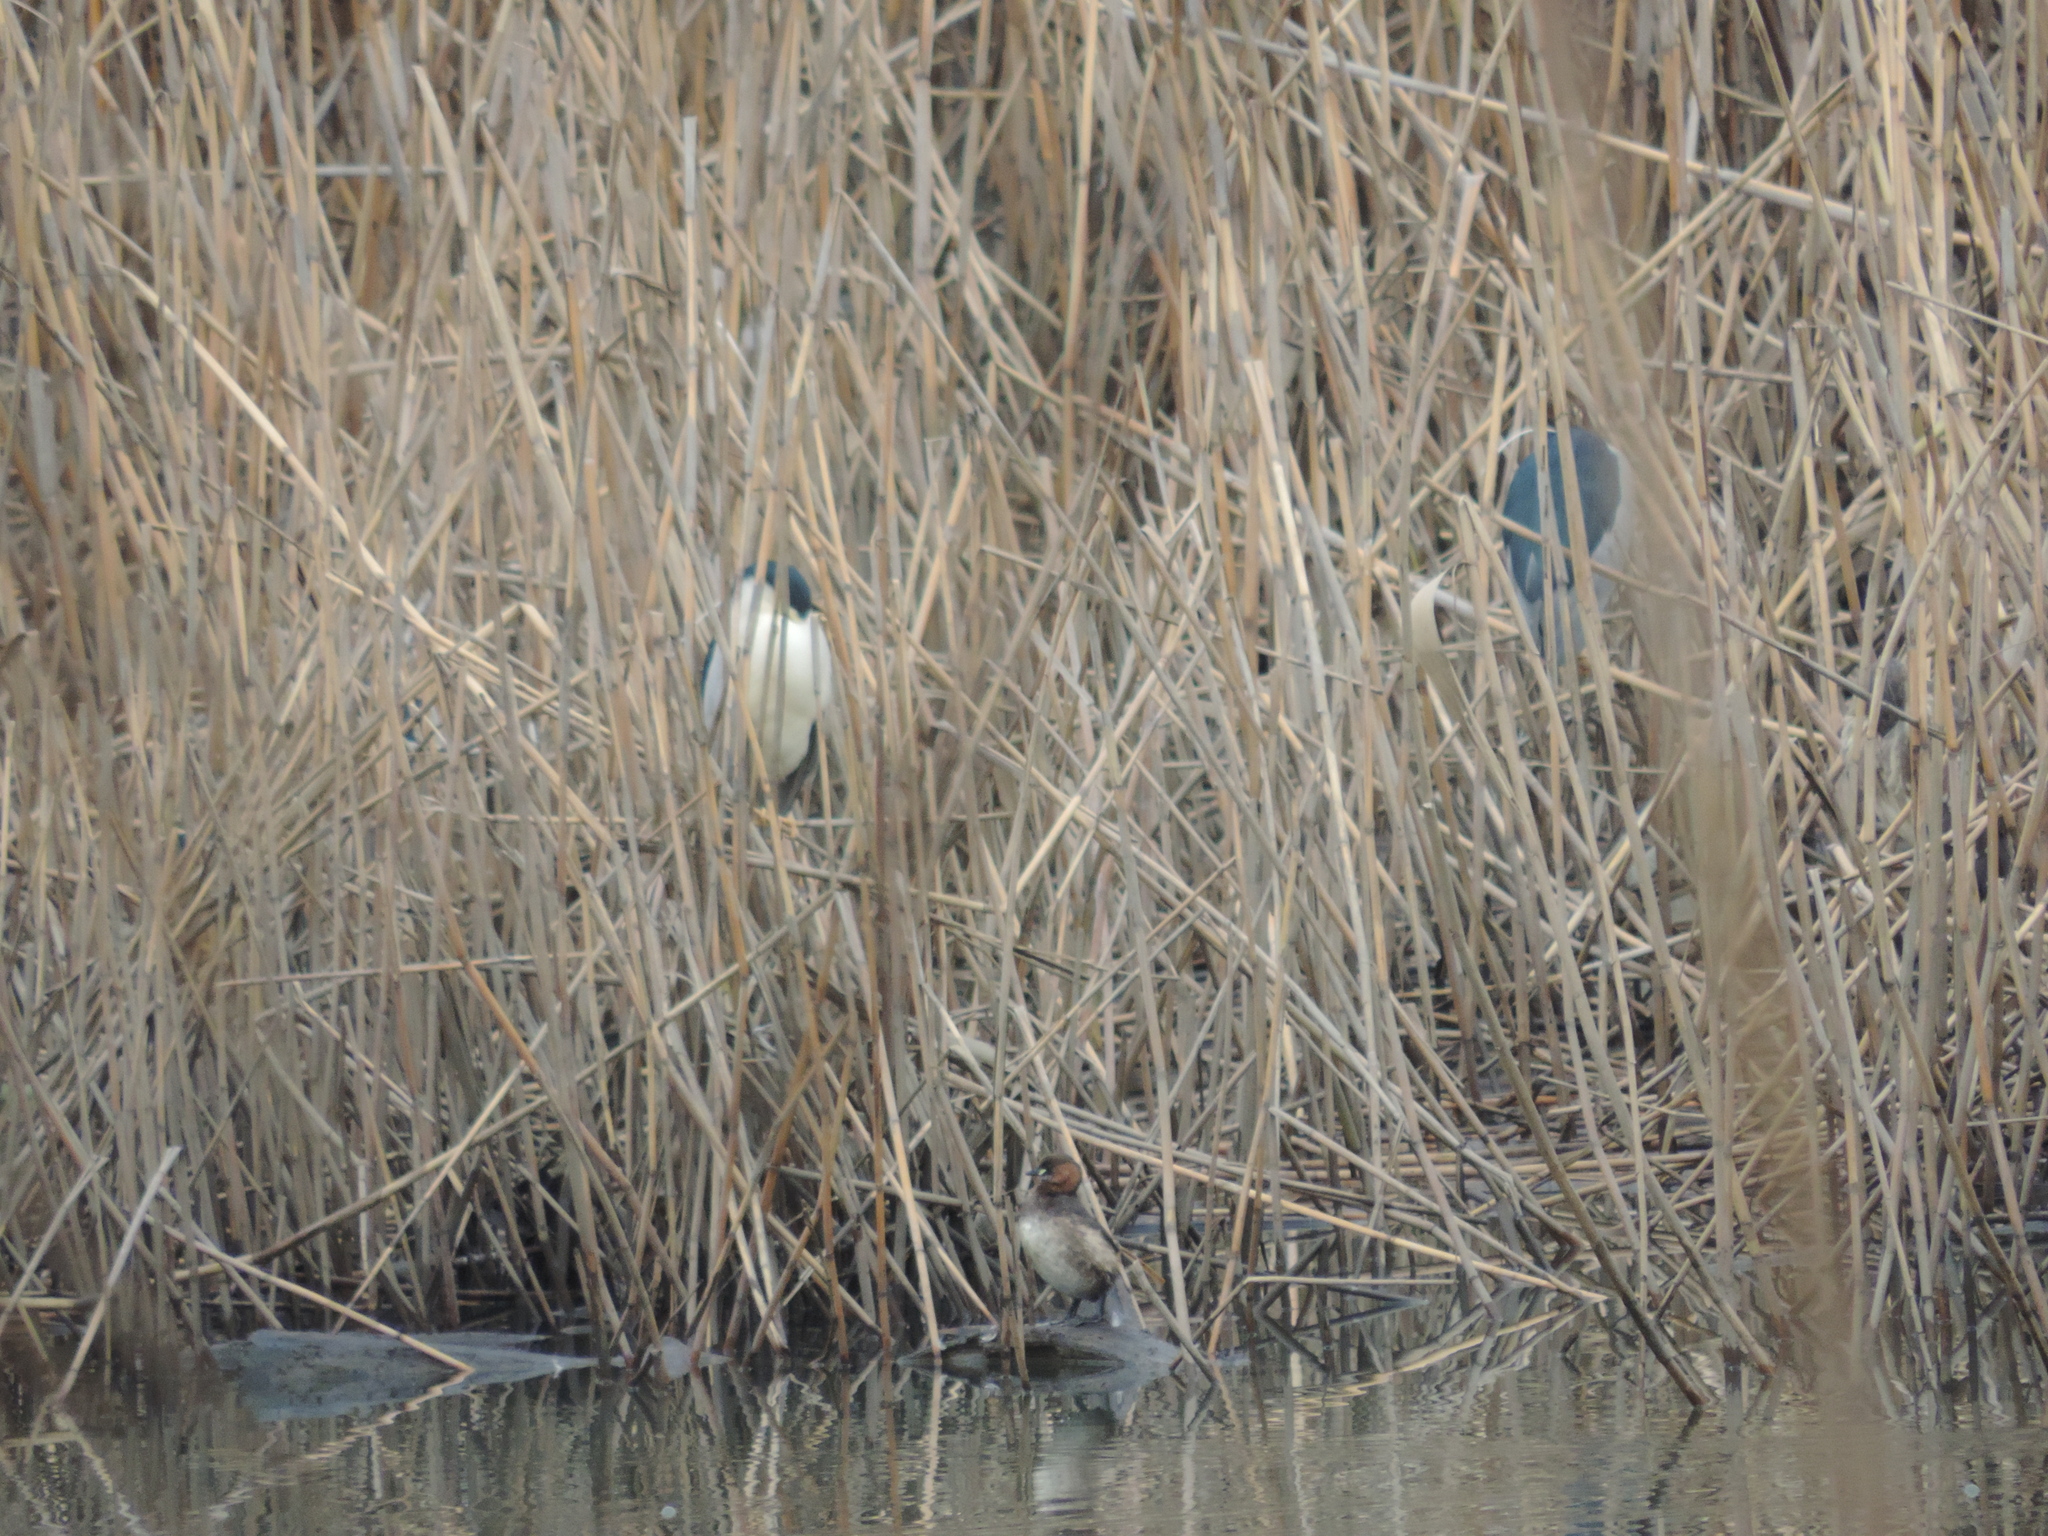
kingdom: Animalia
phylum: Chordata
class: Aves
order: Podicipediformes
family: Podicipedidae
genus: Tachybaptus
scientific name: Tachybaptus ruficollis
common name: Little grebe
